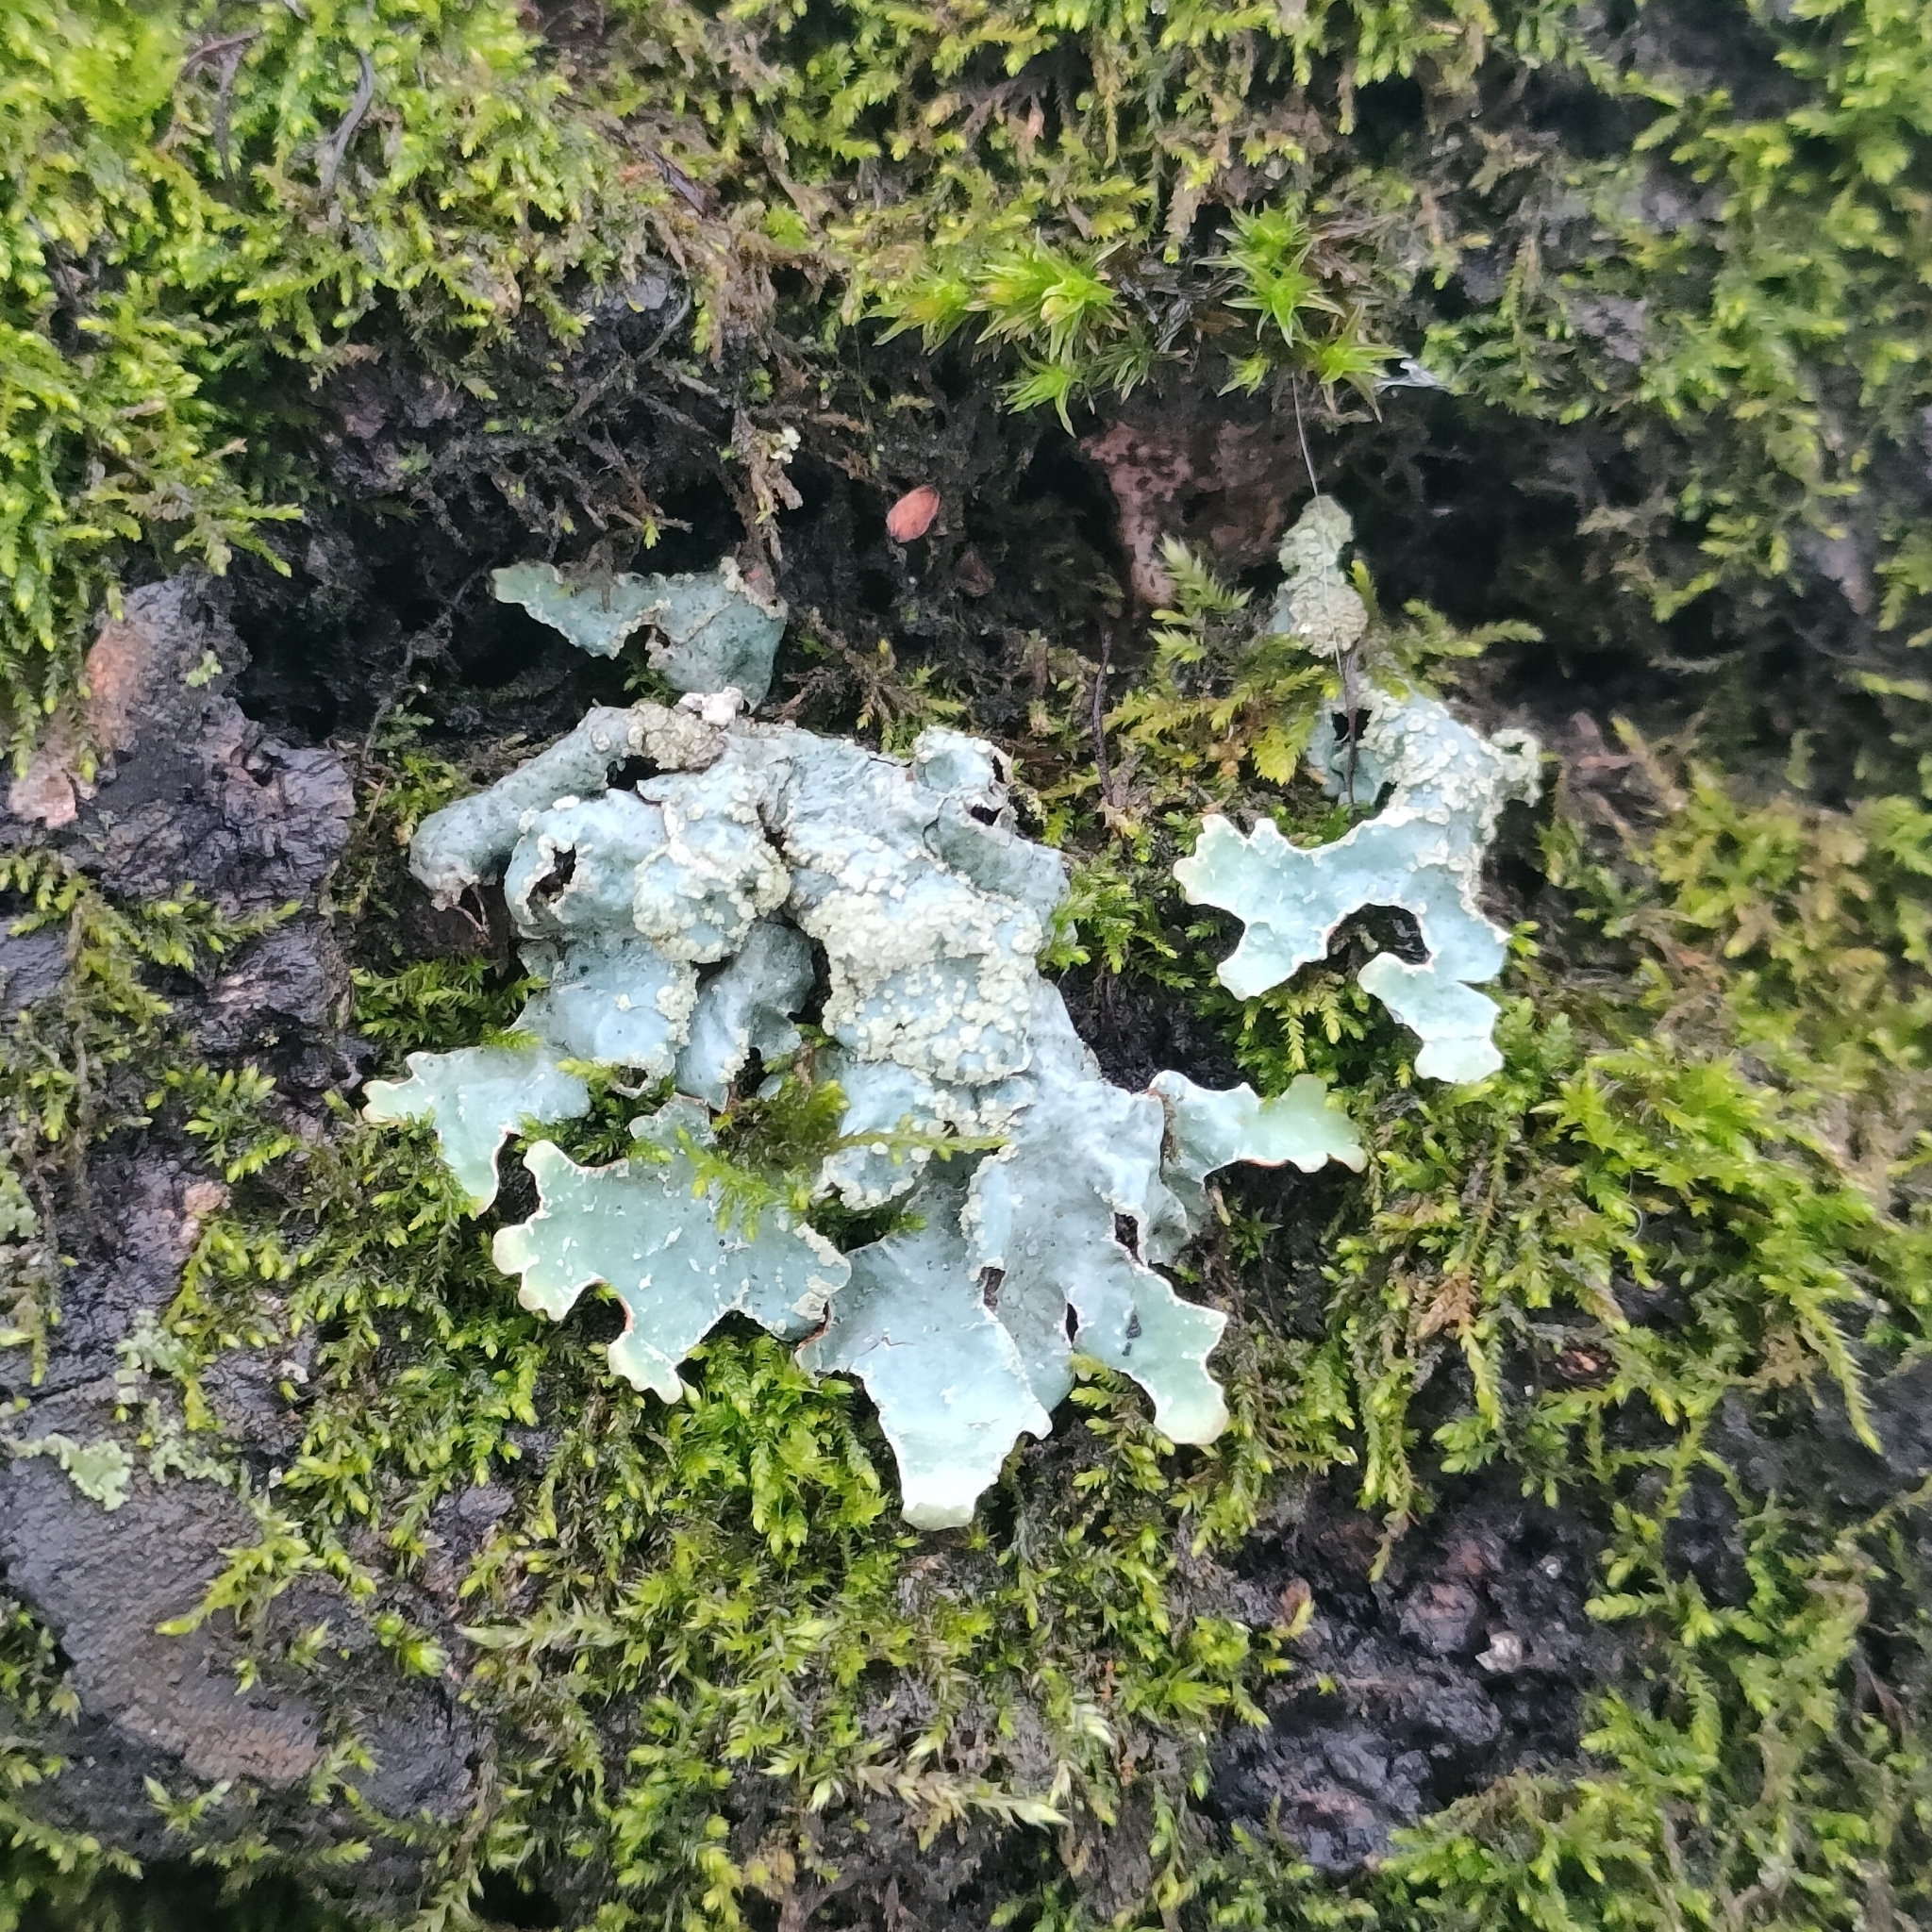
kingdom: Fungi
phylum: Ascomycota
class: Lecanoromycetes
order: Lecanorales
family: Parmeliaceae
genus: Parmelia
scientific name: Parmelia sulcata
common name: Netted shield lichen
